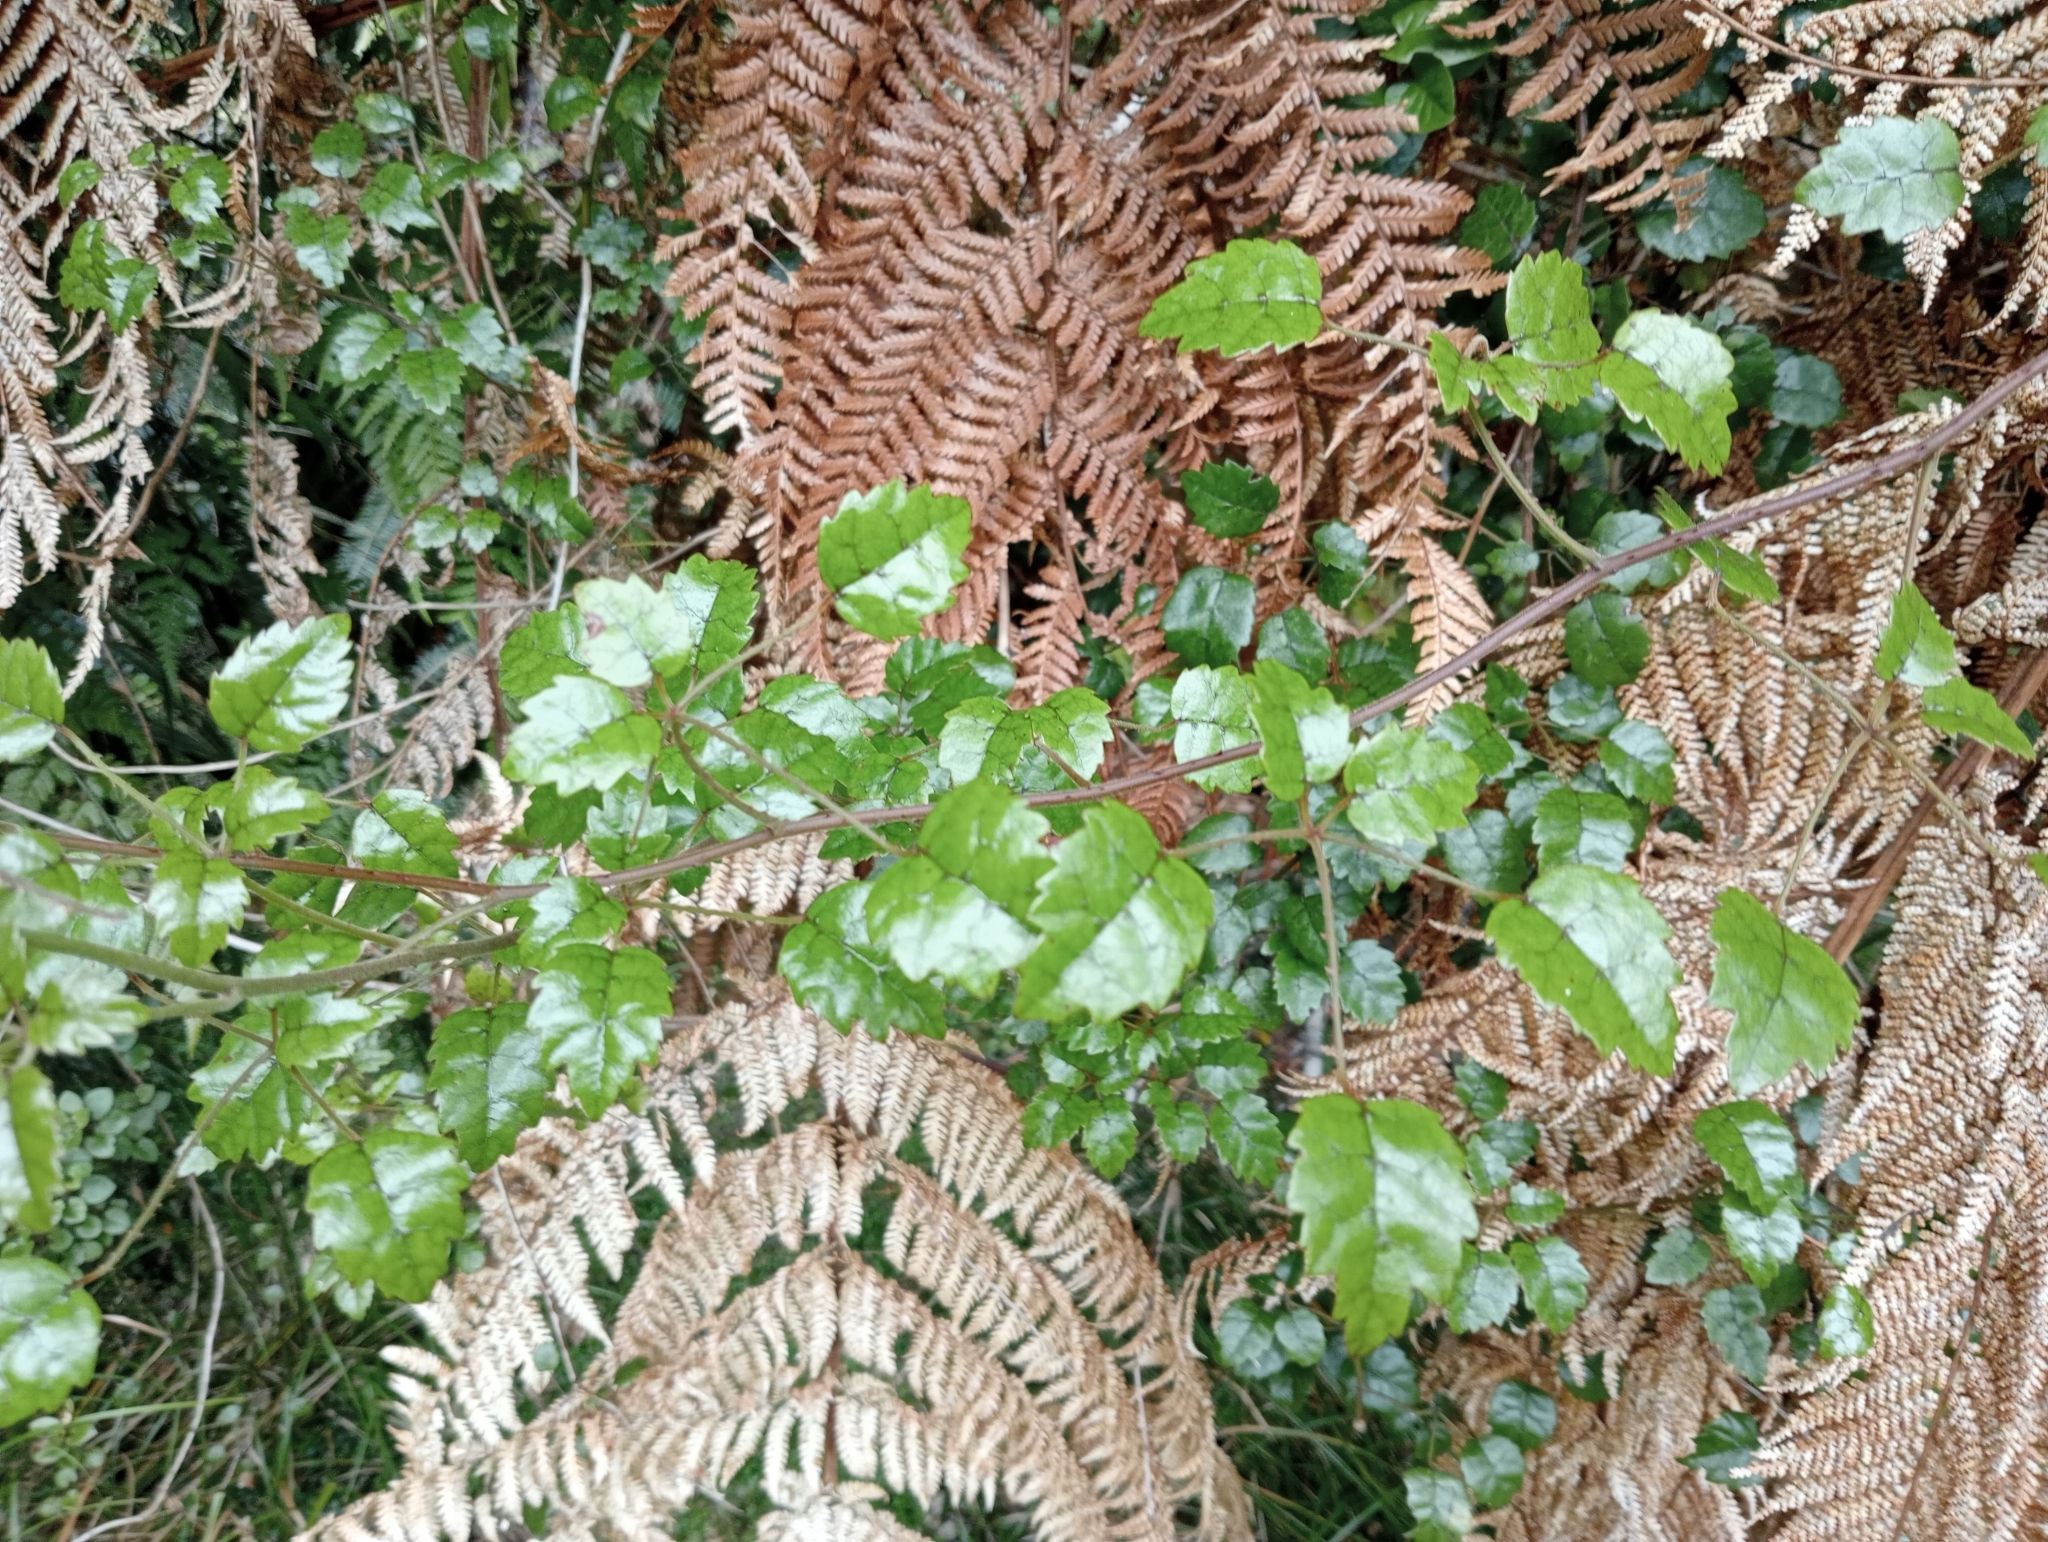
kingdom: Plantae
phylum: Tracheophyta
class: Magnoliopsida
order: Rosales
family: Rosaceae
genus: Rubus
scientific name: Rubus australis
